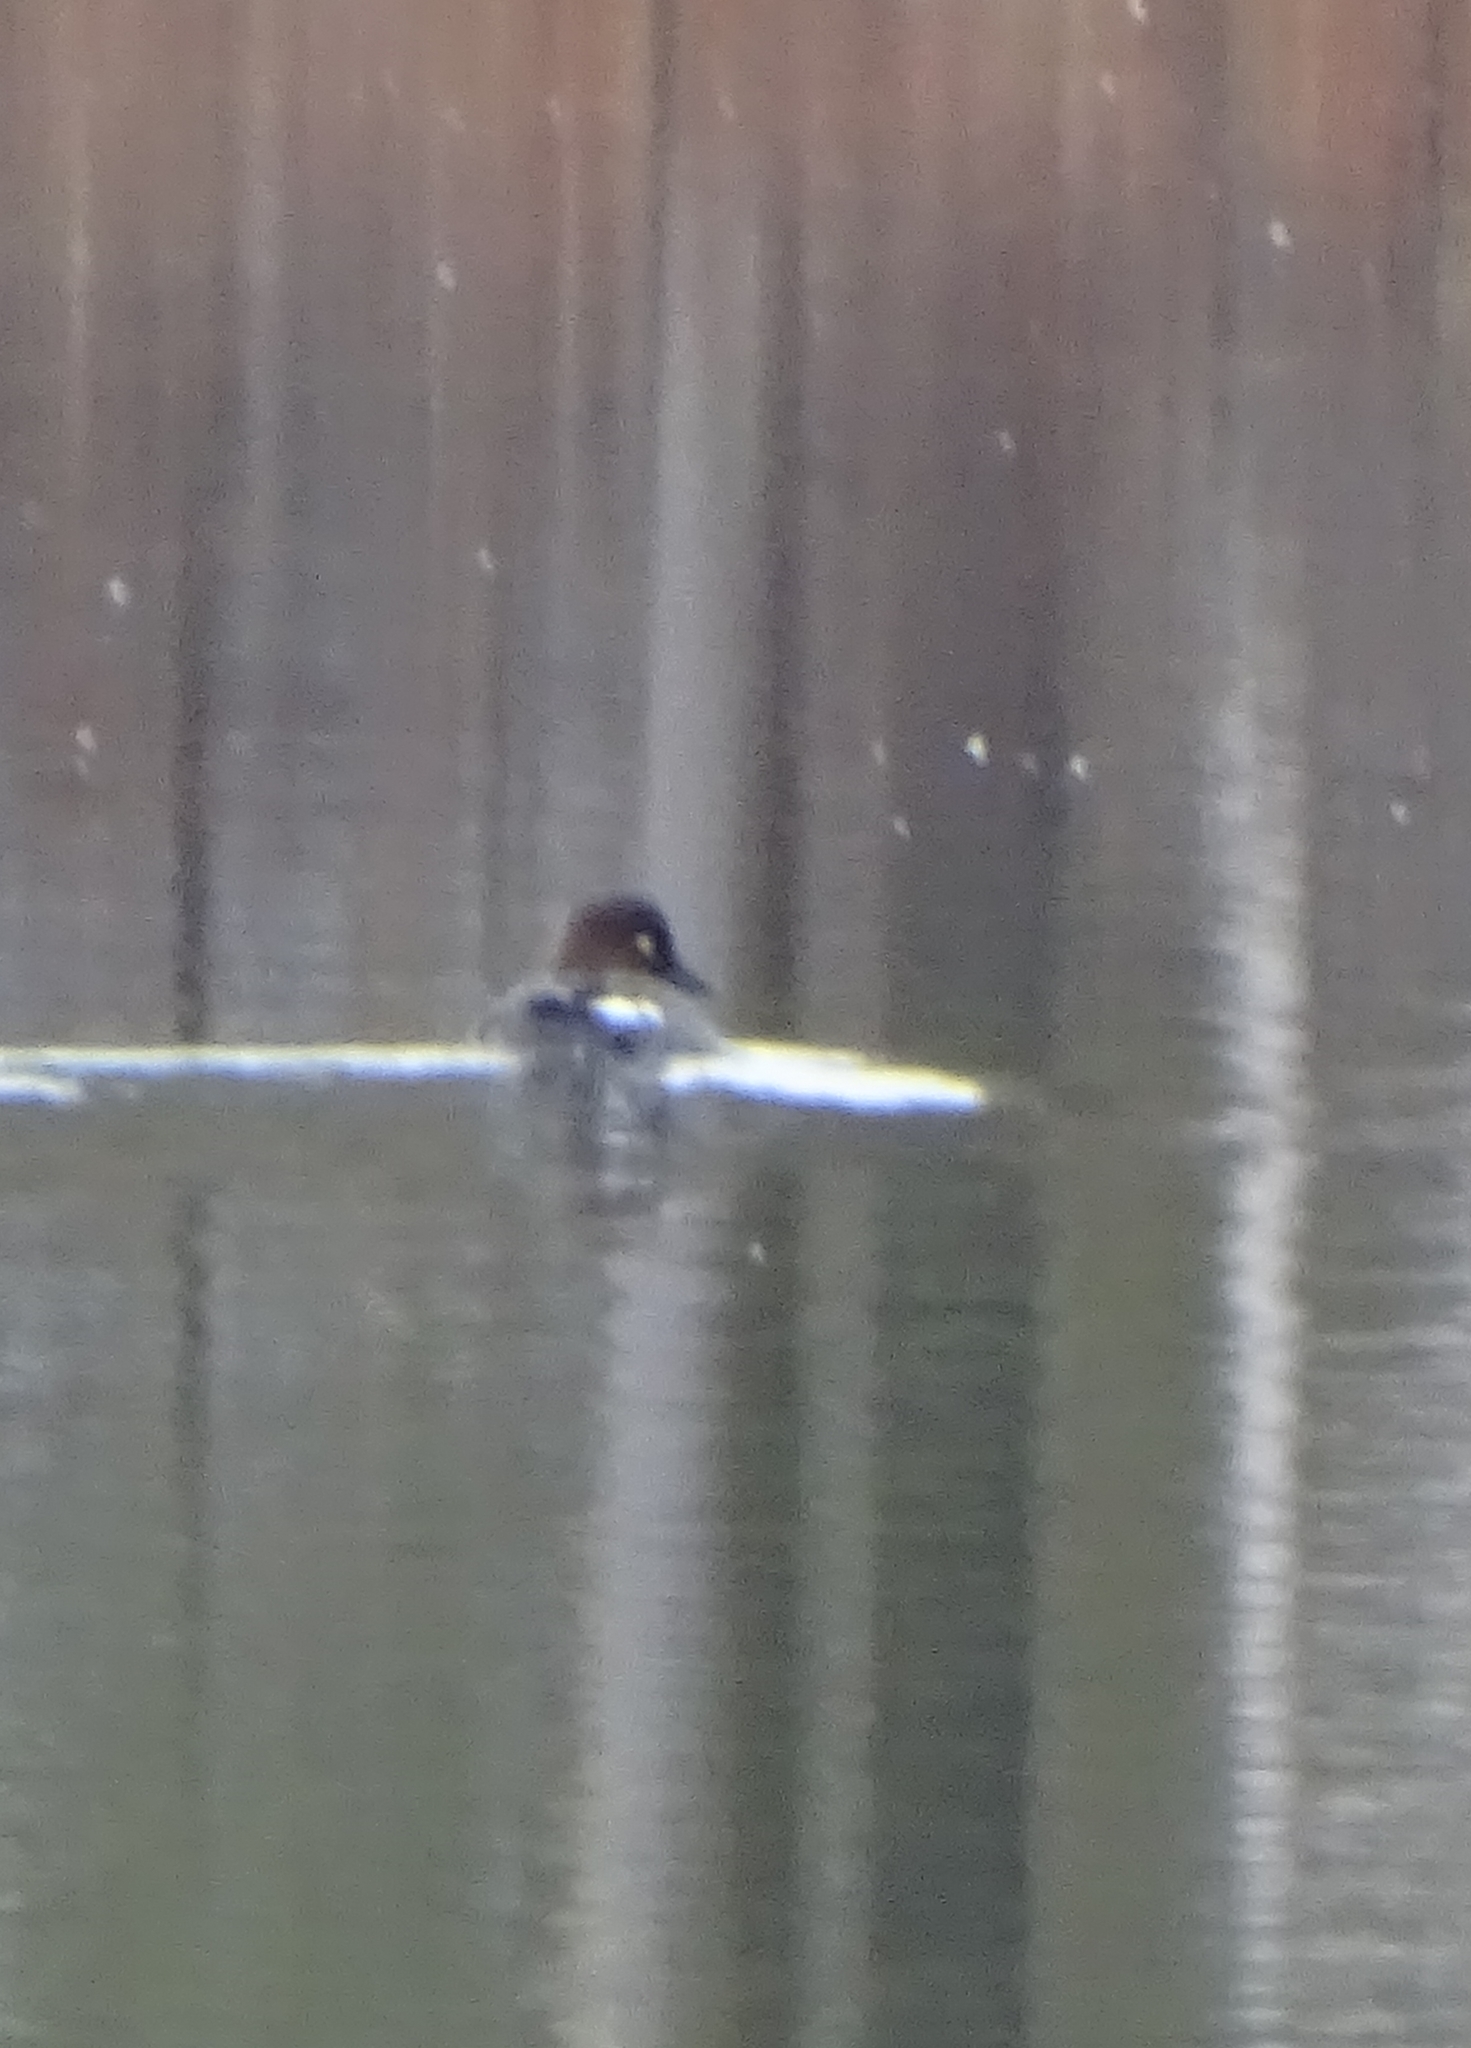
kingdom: Animalia
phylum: Chordata
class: Aves
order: Anseriformes
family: Anatidae
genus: Bucephala
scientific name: Bucephala clangula
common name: Common goldeneye
